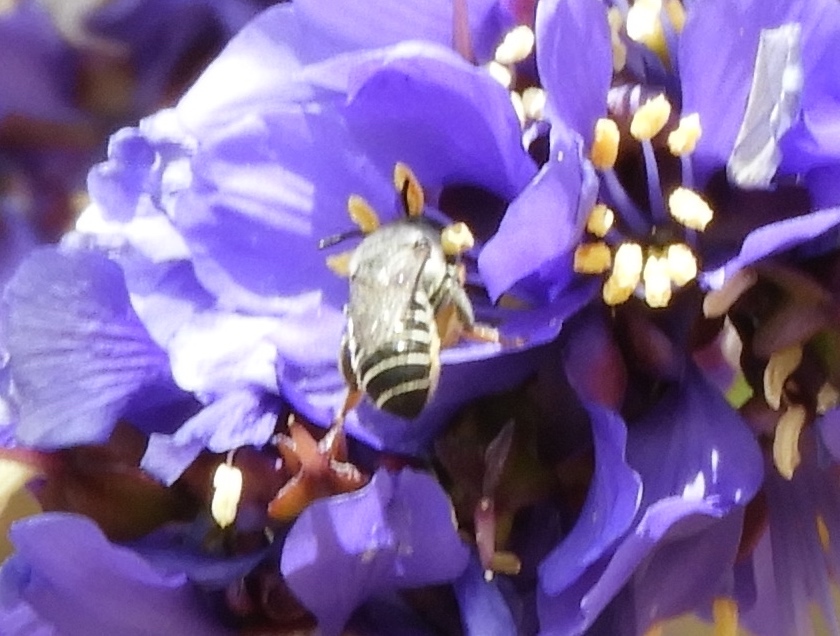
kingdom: Animalia
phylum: Arthropoda
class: Insecta
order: Hymenoptera
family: Megachilidae
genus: Megachile
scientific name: Megachile
